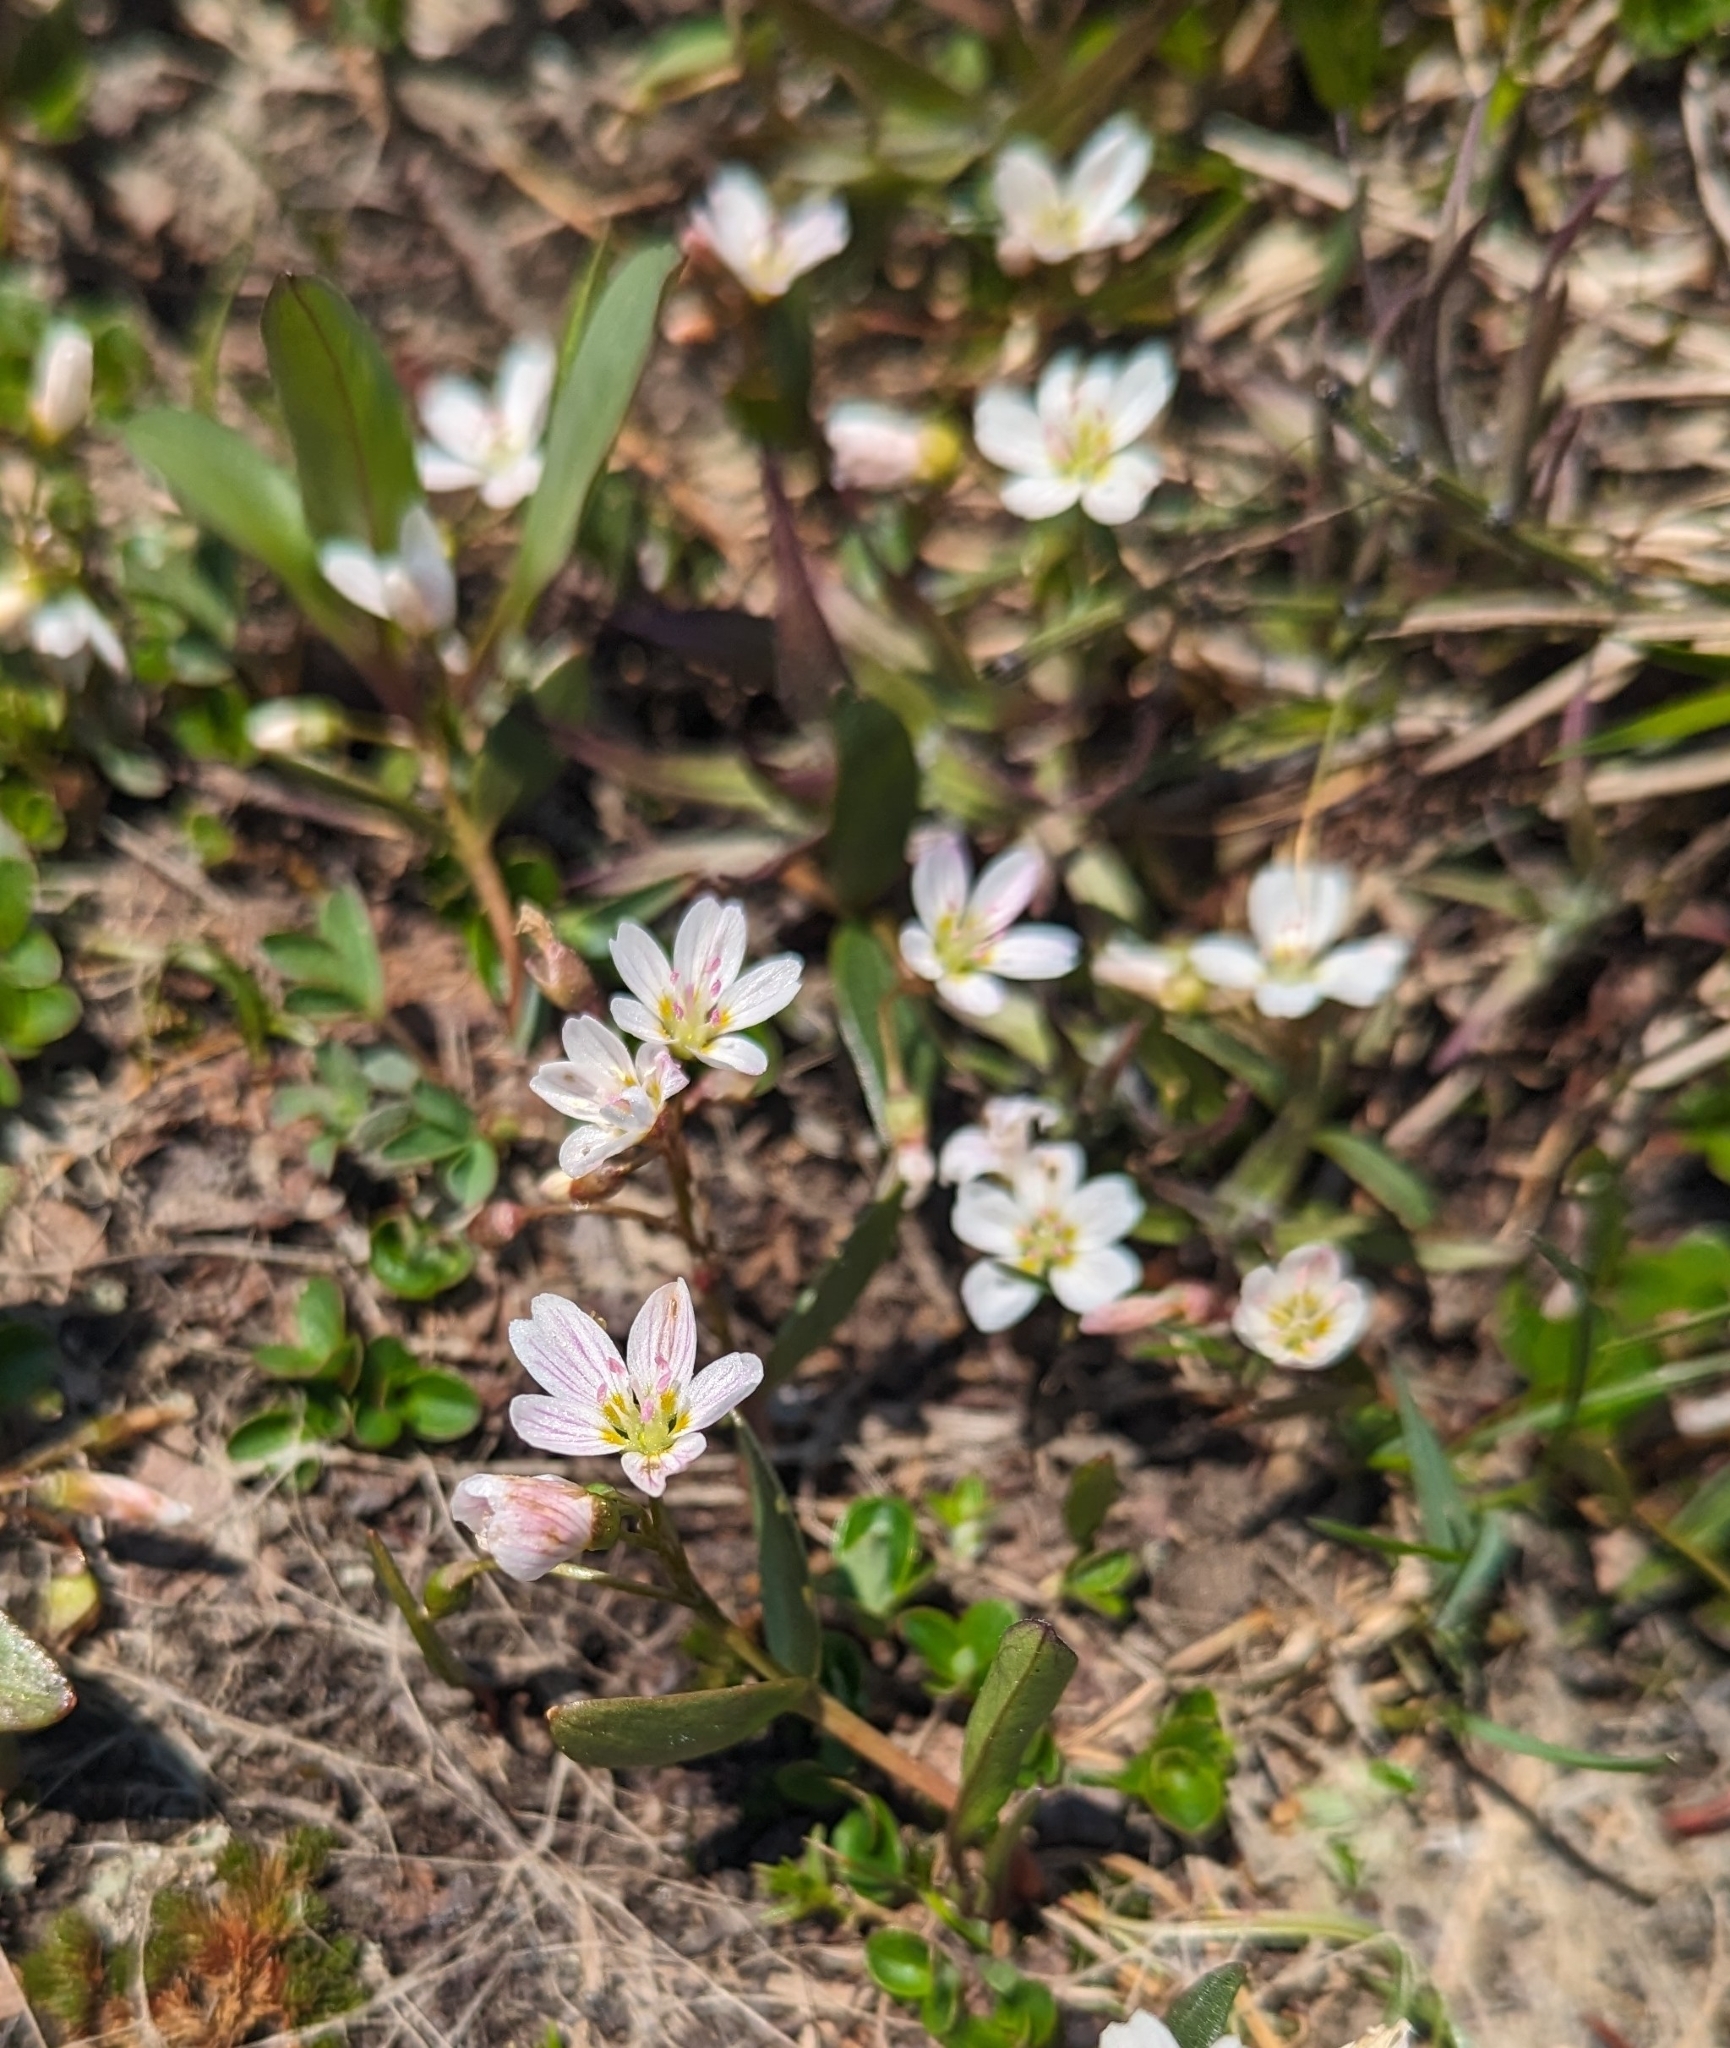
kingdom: Plantae
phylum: Tracheophyta
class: Magnoliopsida
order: Caryophyllales
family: Montiaceae
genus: Claytonia
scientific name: Claytonia lanceolata
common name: Western spring-beauty
